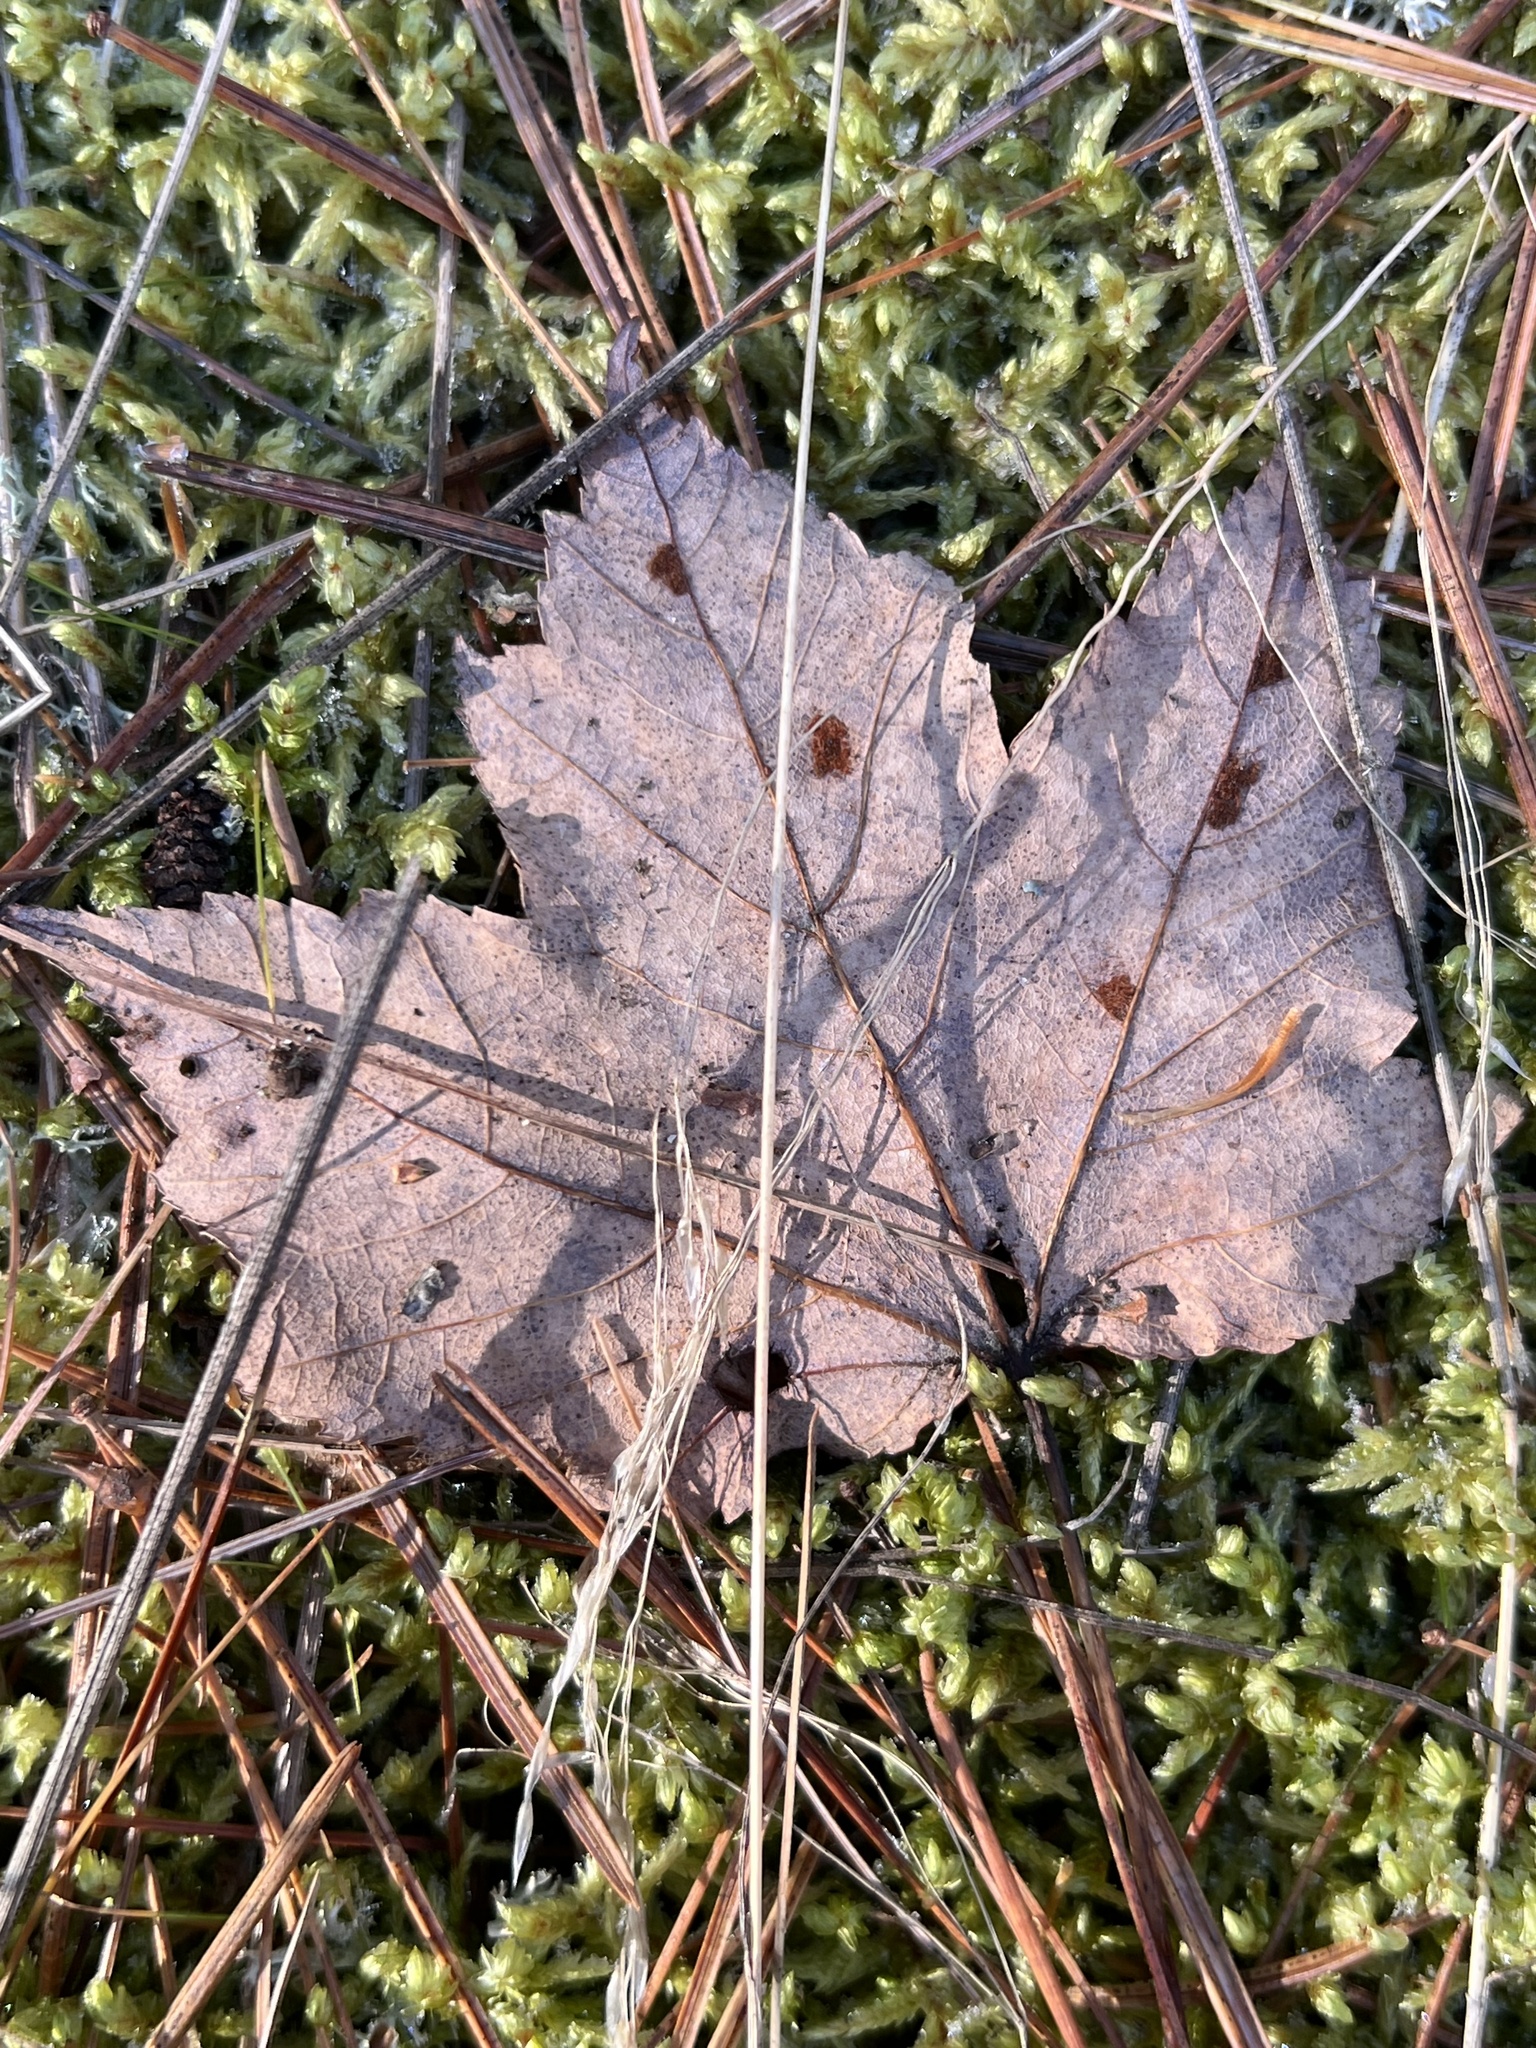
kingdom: Plantae
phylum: Tracheophyta
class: Magnoliopsida
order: Sapindales
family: Sapindaceae
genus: Acer
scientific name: Acer rubrum
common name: Red maple
